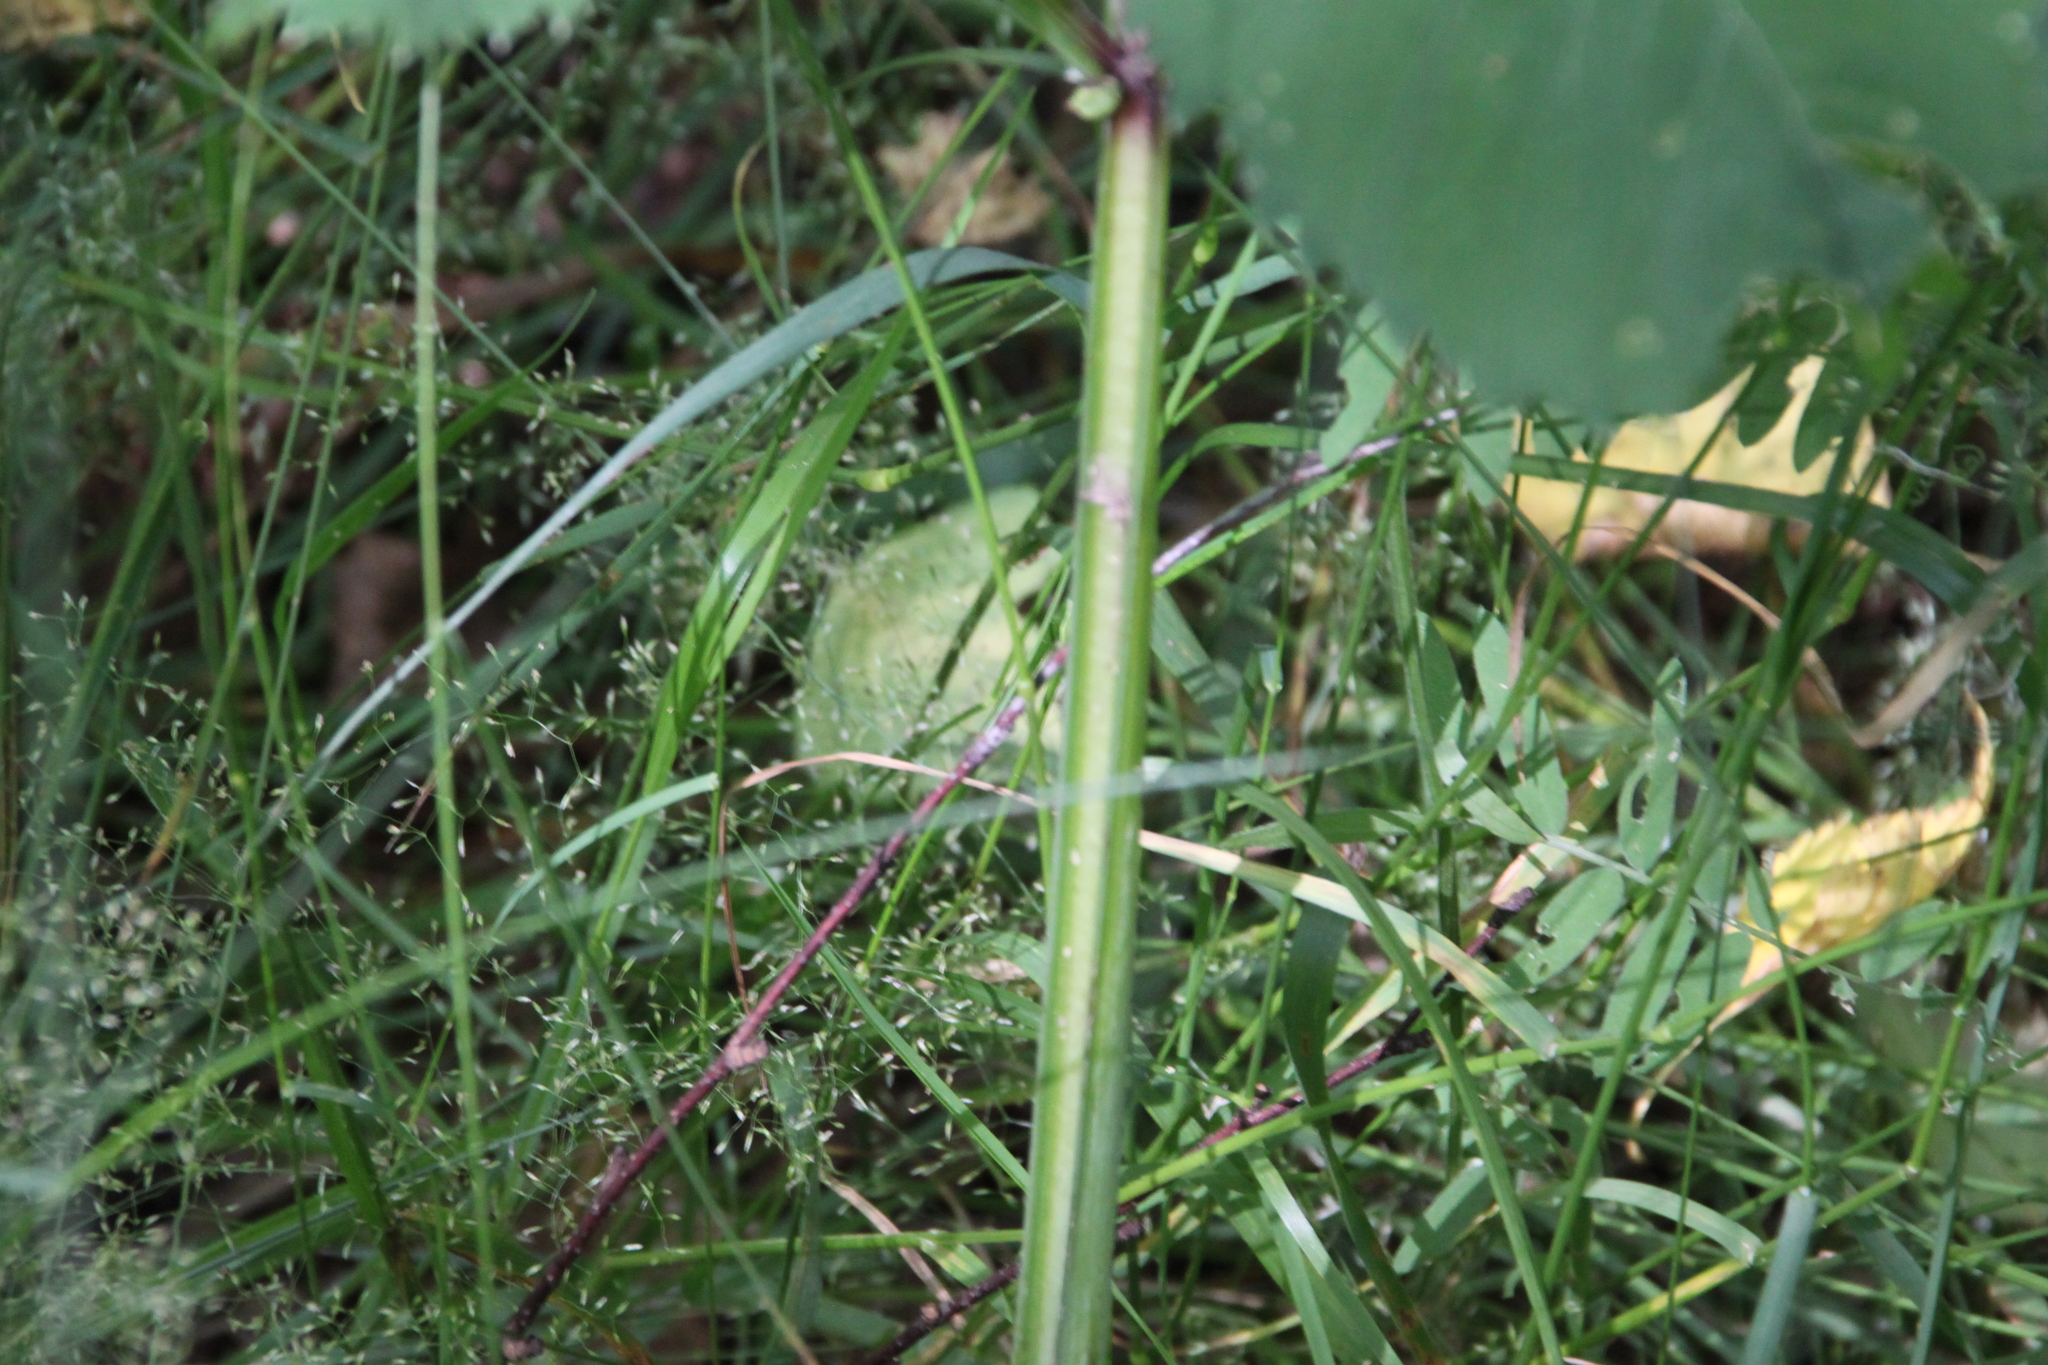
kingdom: Plantae
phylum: Tracheophyta
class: Magnoliopsida
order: Apiales
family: Apiaceae
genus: Angelica
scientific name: Angelica sylvestris
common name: Wild angelica
